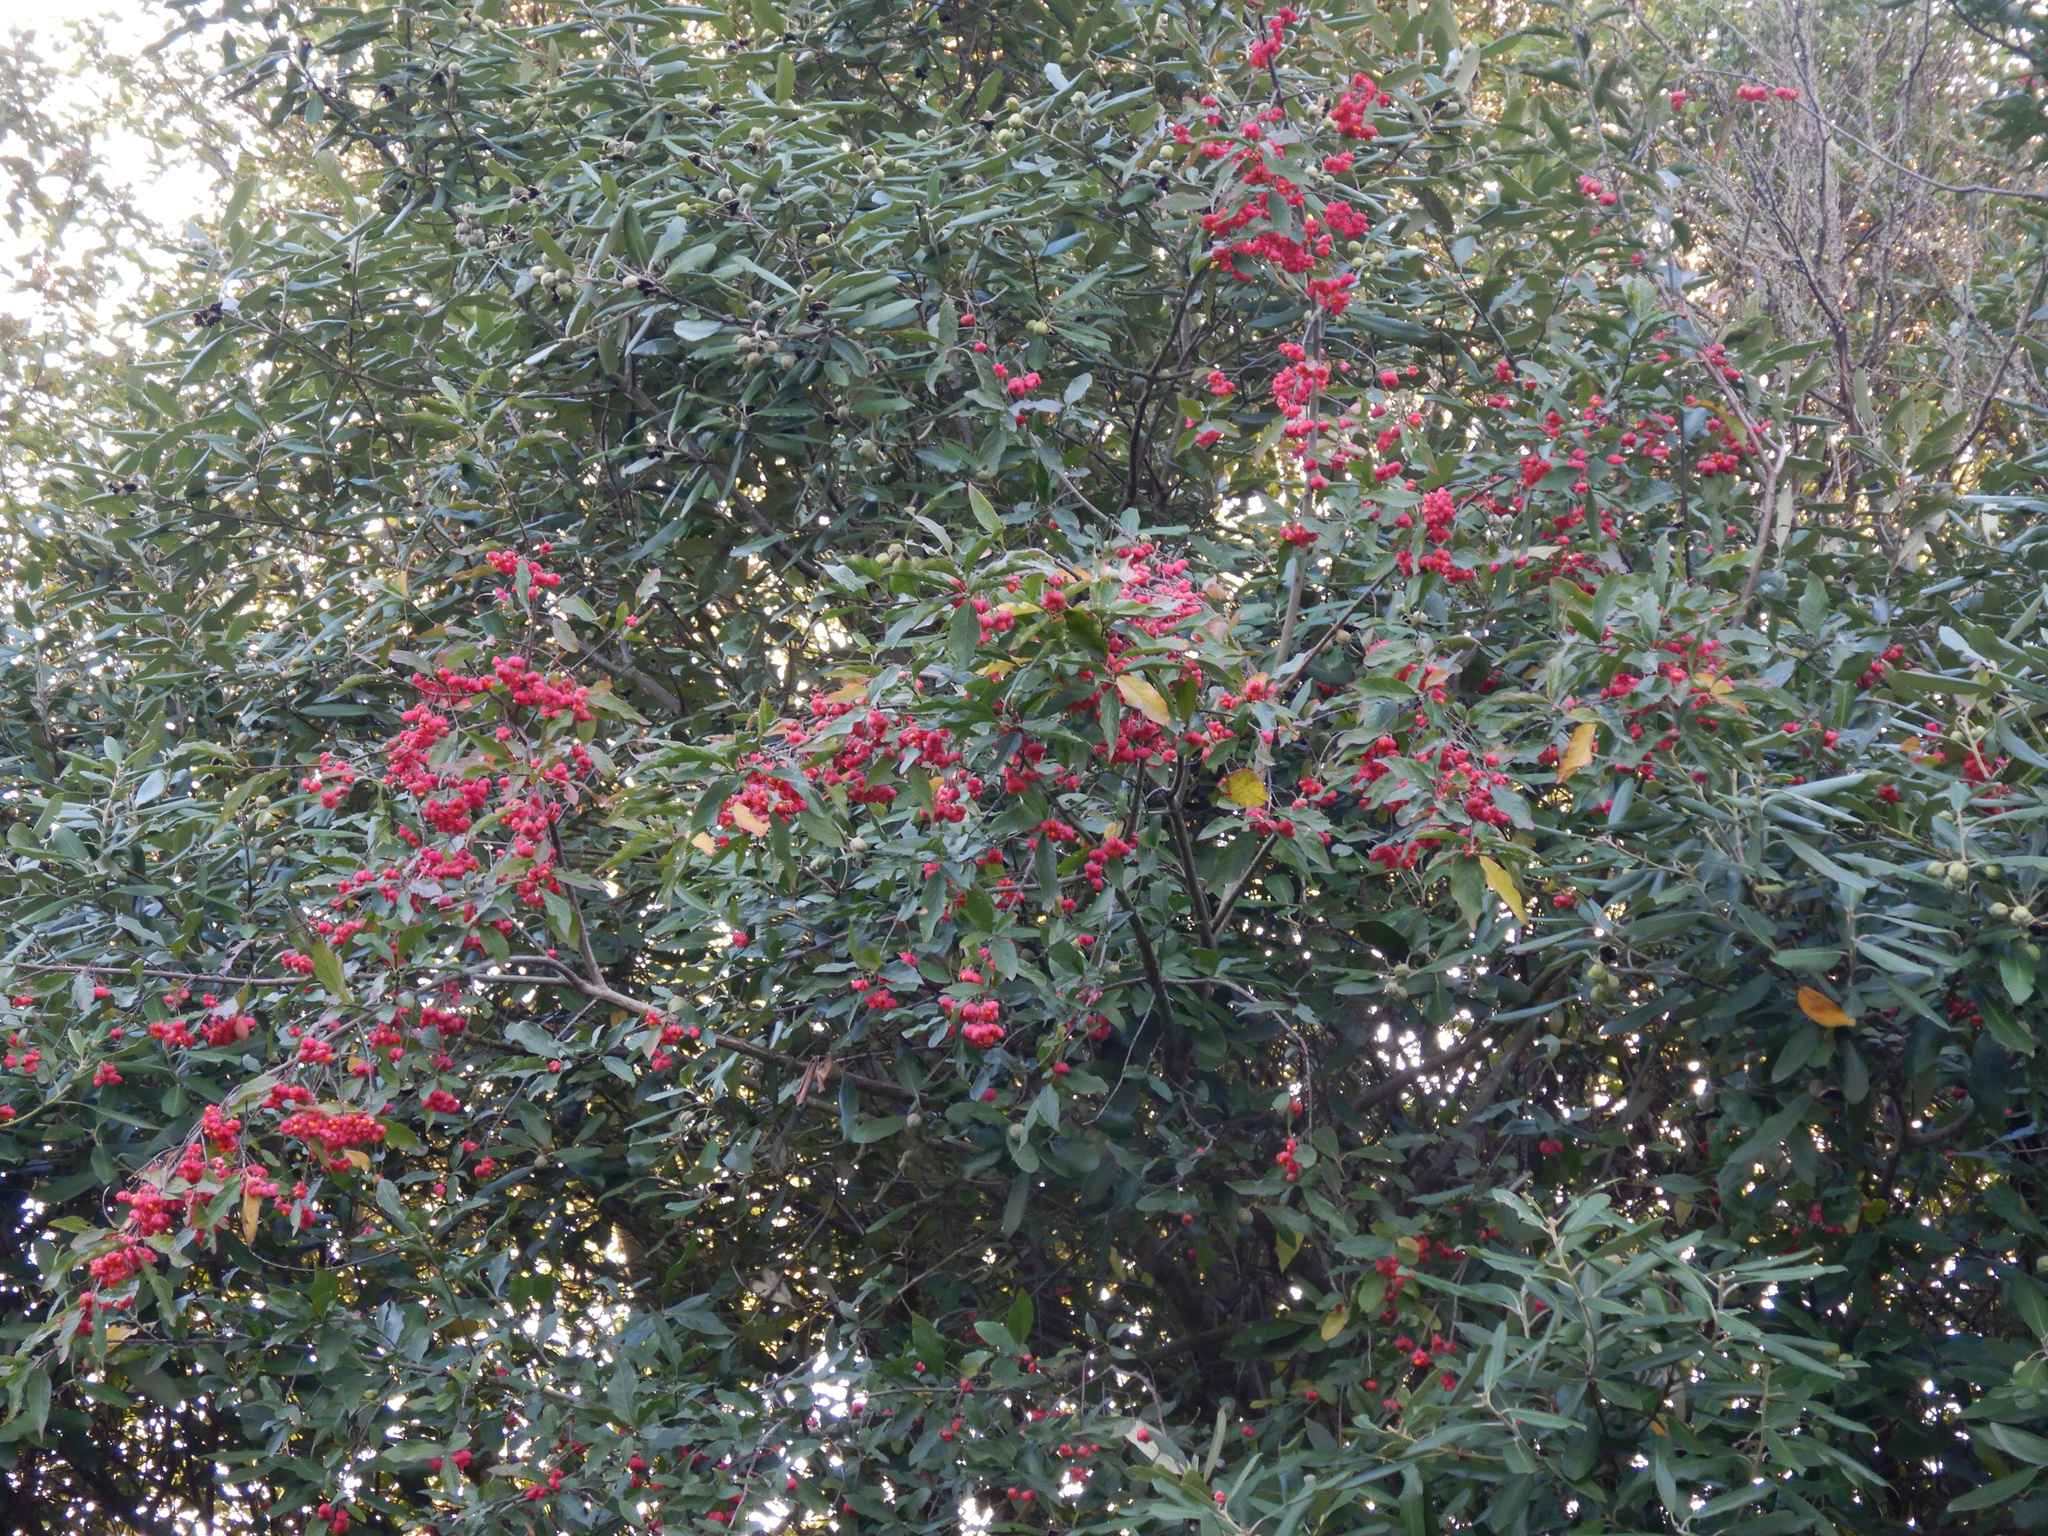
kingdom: Plantae
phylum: Tracheophyta
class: Magnoliopsida
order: Celastrales
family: Celastraceae
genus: Euonymus
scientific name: Euonymus europaeus
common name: Spindle
